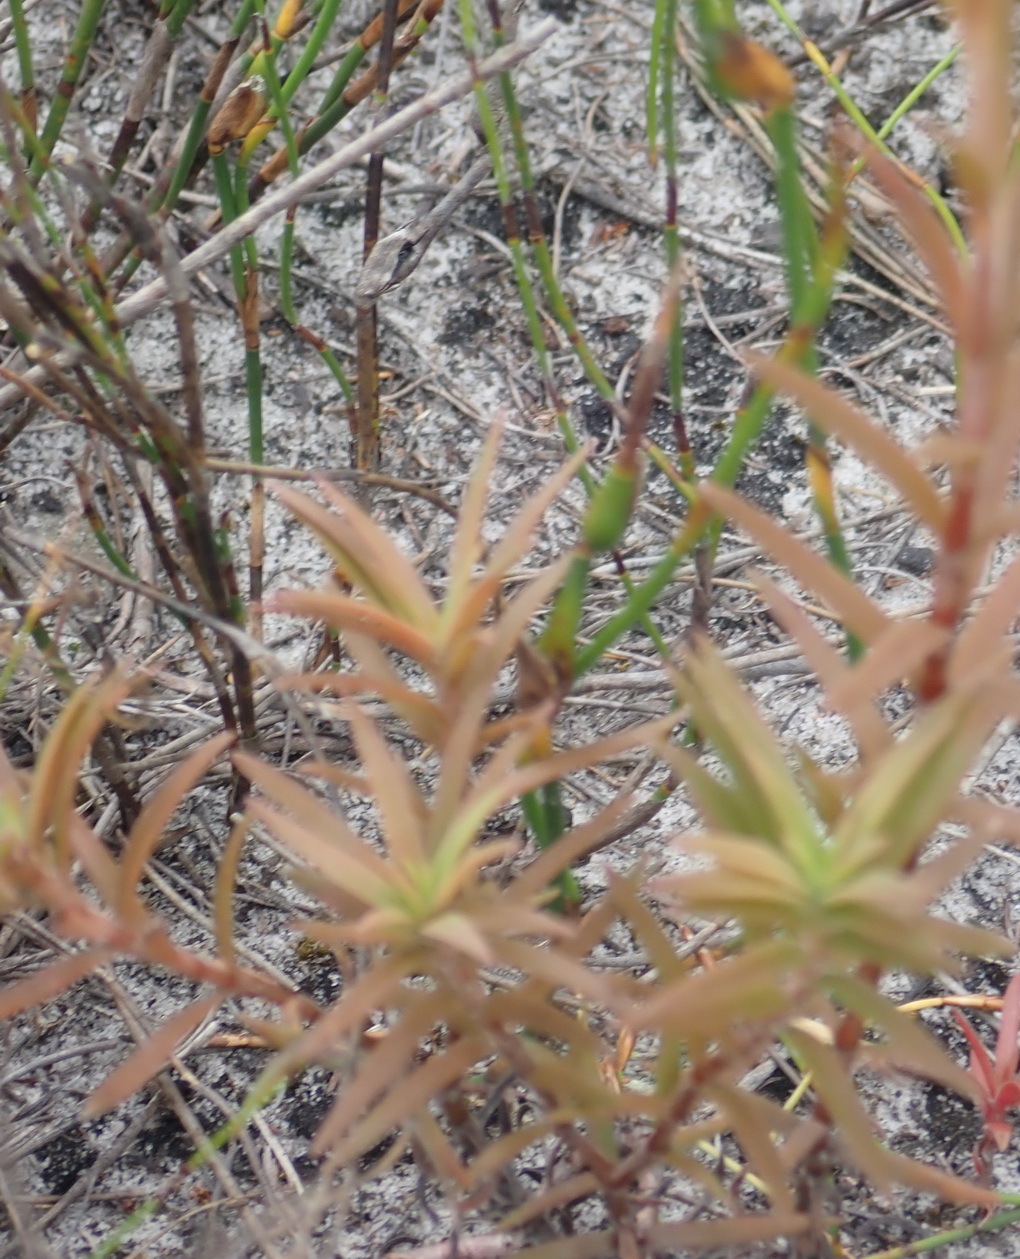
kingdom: Plantae
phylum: Tracheophyta
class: Magnoliopsida
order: Saxifragales
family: Crassulaceae
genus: Crassula
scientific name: Crassula subulata
